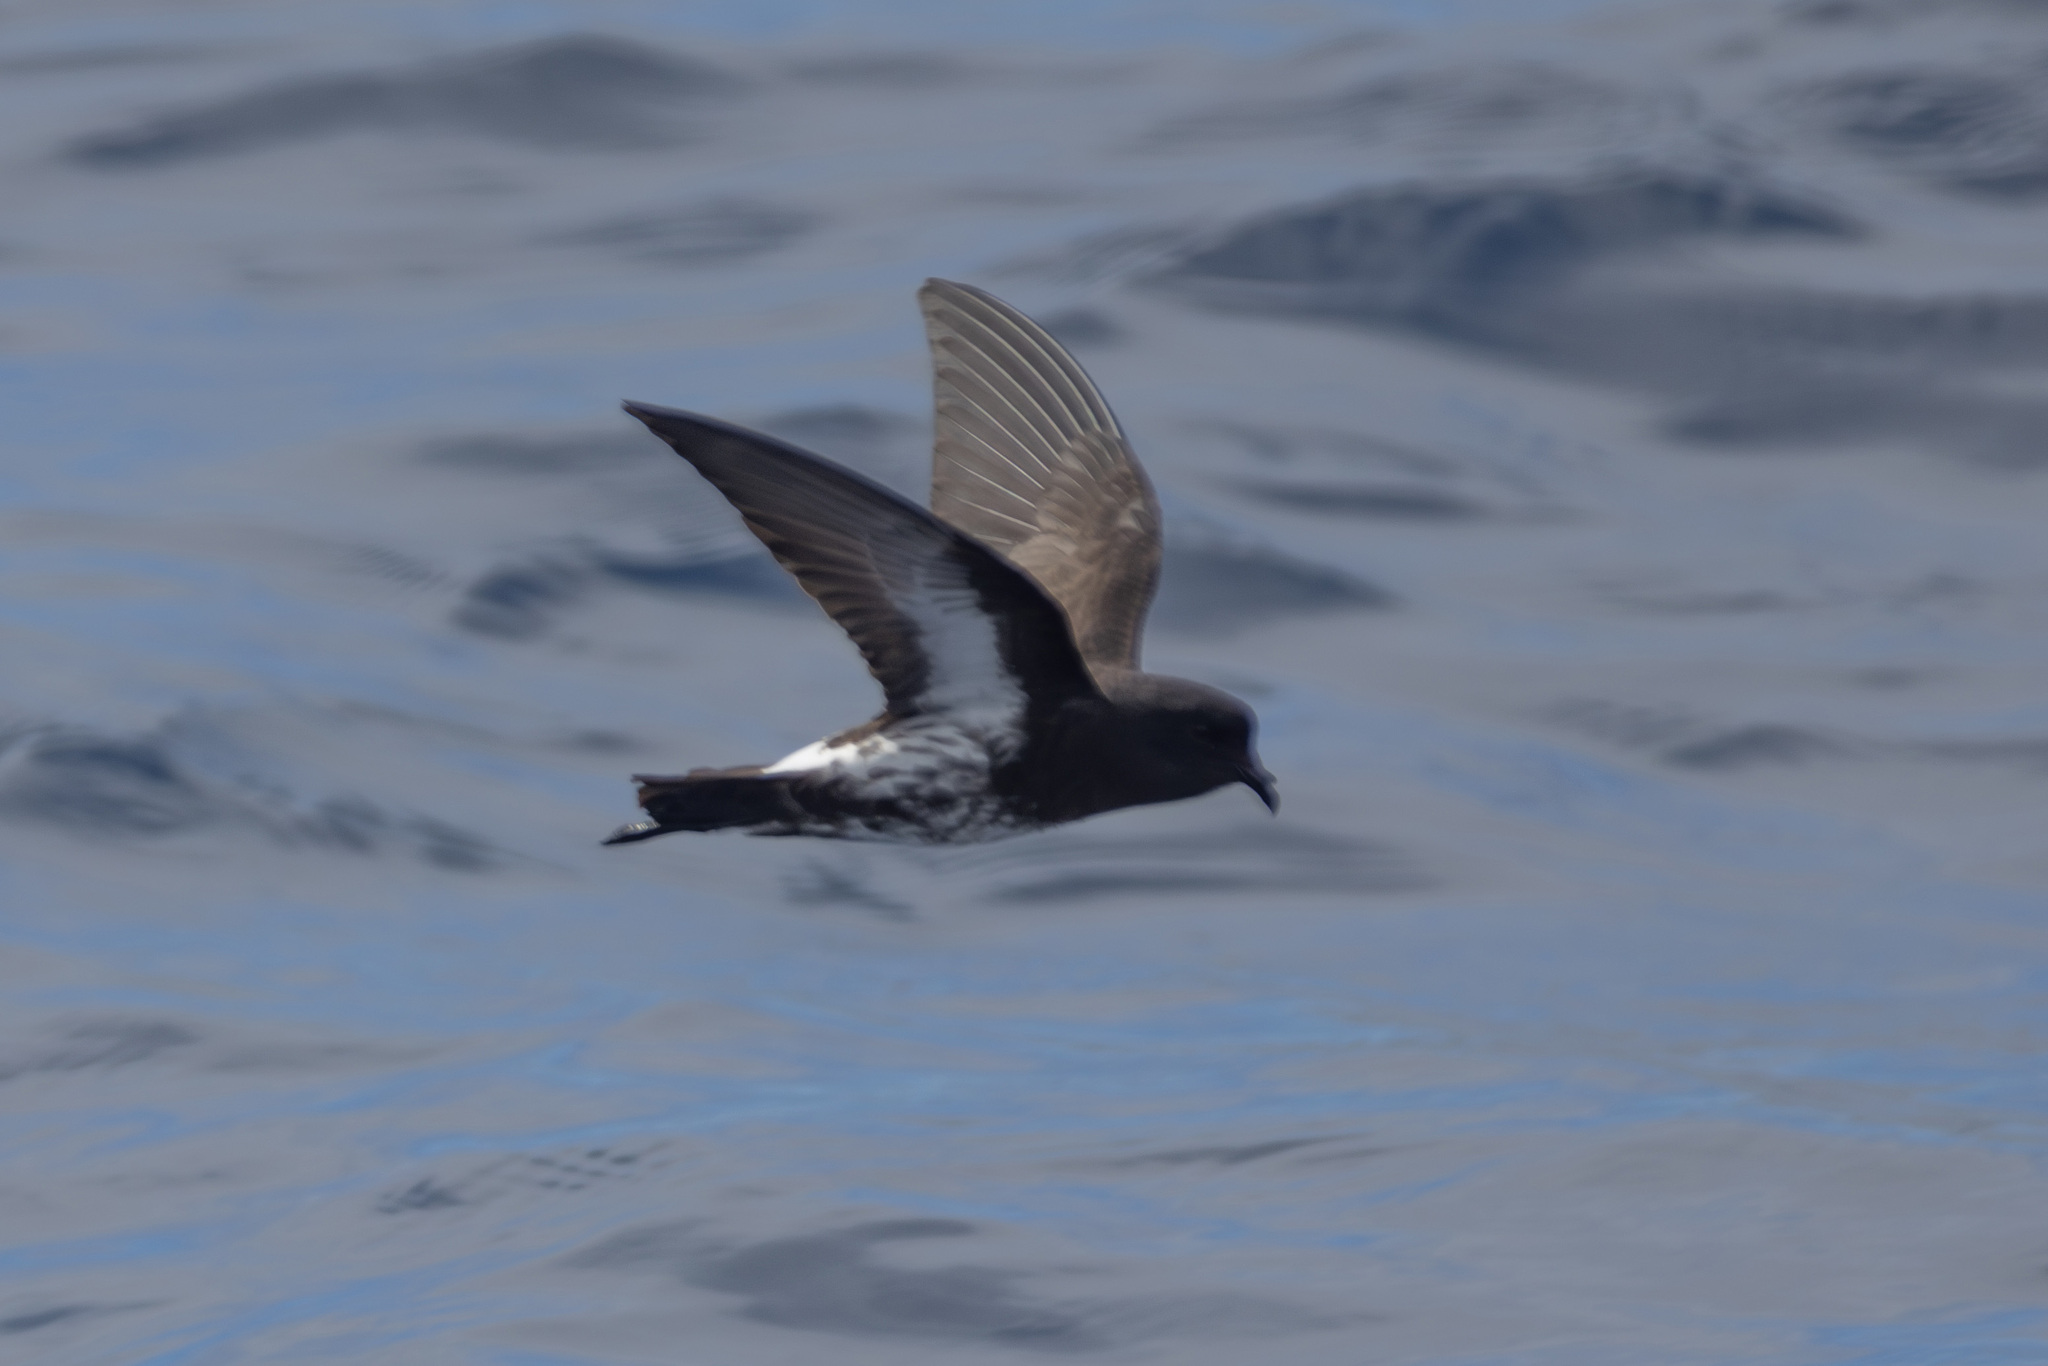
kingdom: Animalia
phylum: Chordata
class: Aves
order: Procellariiformes
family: Hydrobatidae
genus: Oceanites
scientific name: Oceanites maorianus
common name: New zealand storm petrel
